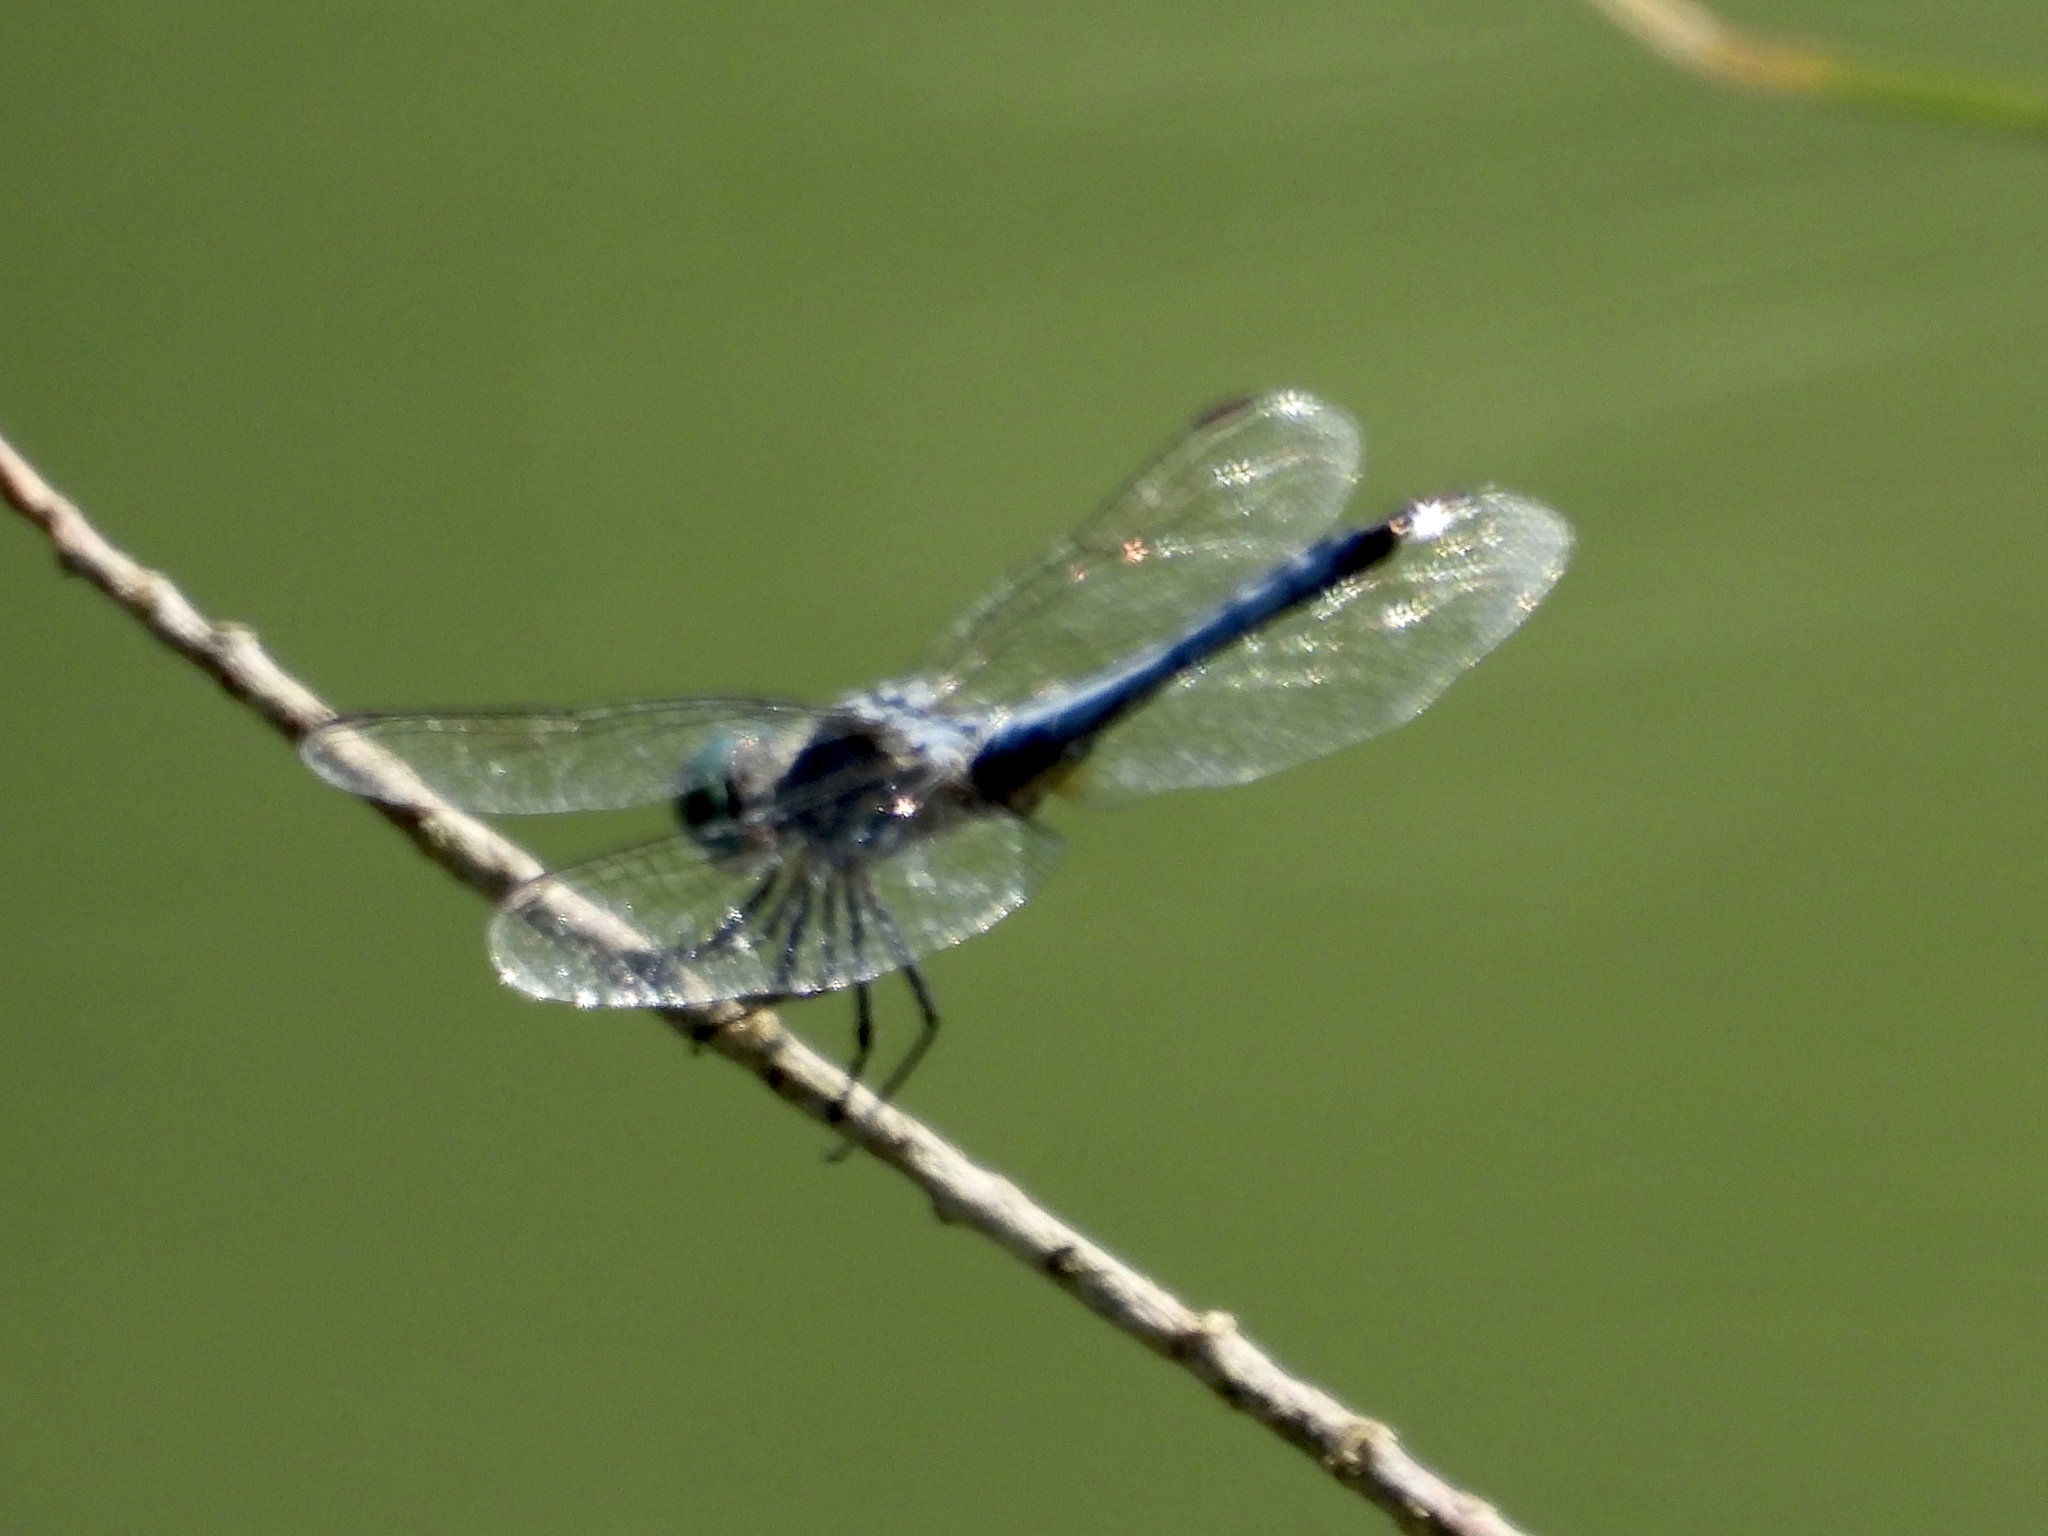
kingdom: Animalia
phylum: Arthropoda
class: Insecta
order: Odonata
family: Libellulidae
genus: Pachydiplax
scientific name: Pachydiplax longipennis
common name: Blue dasher
